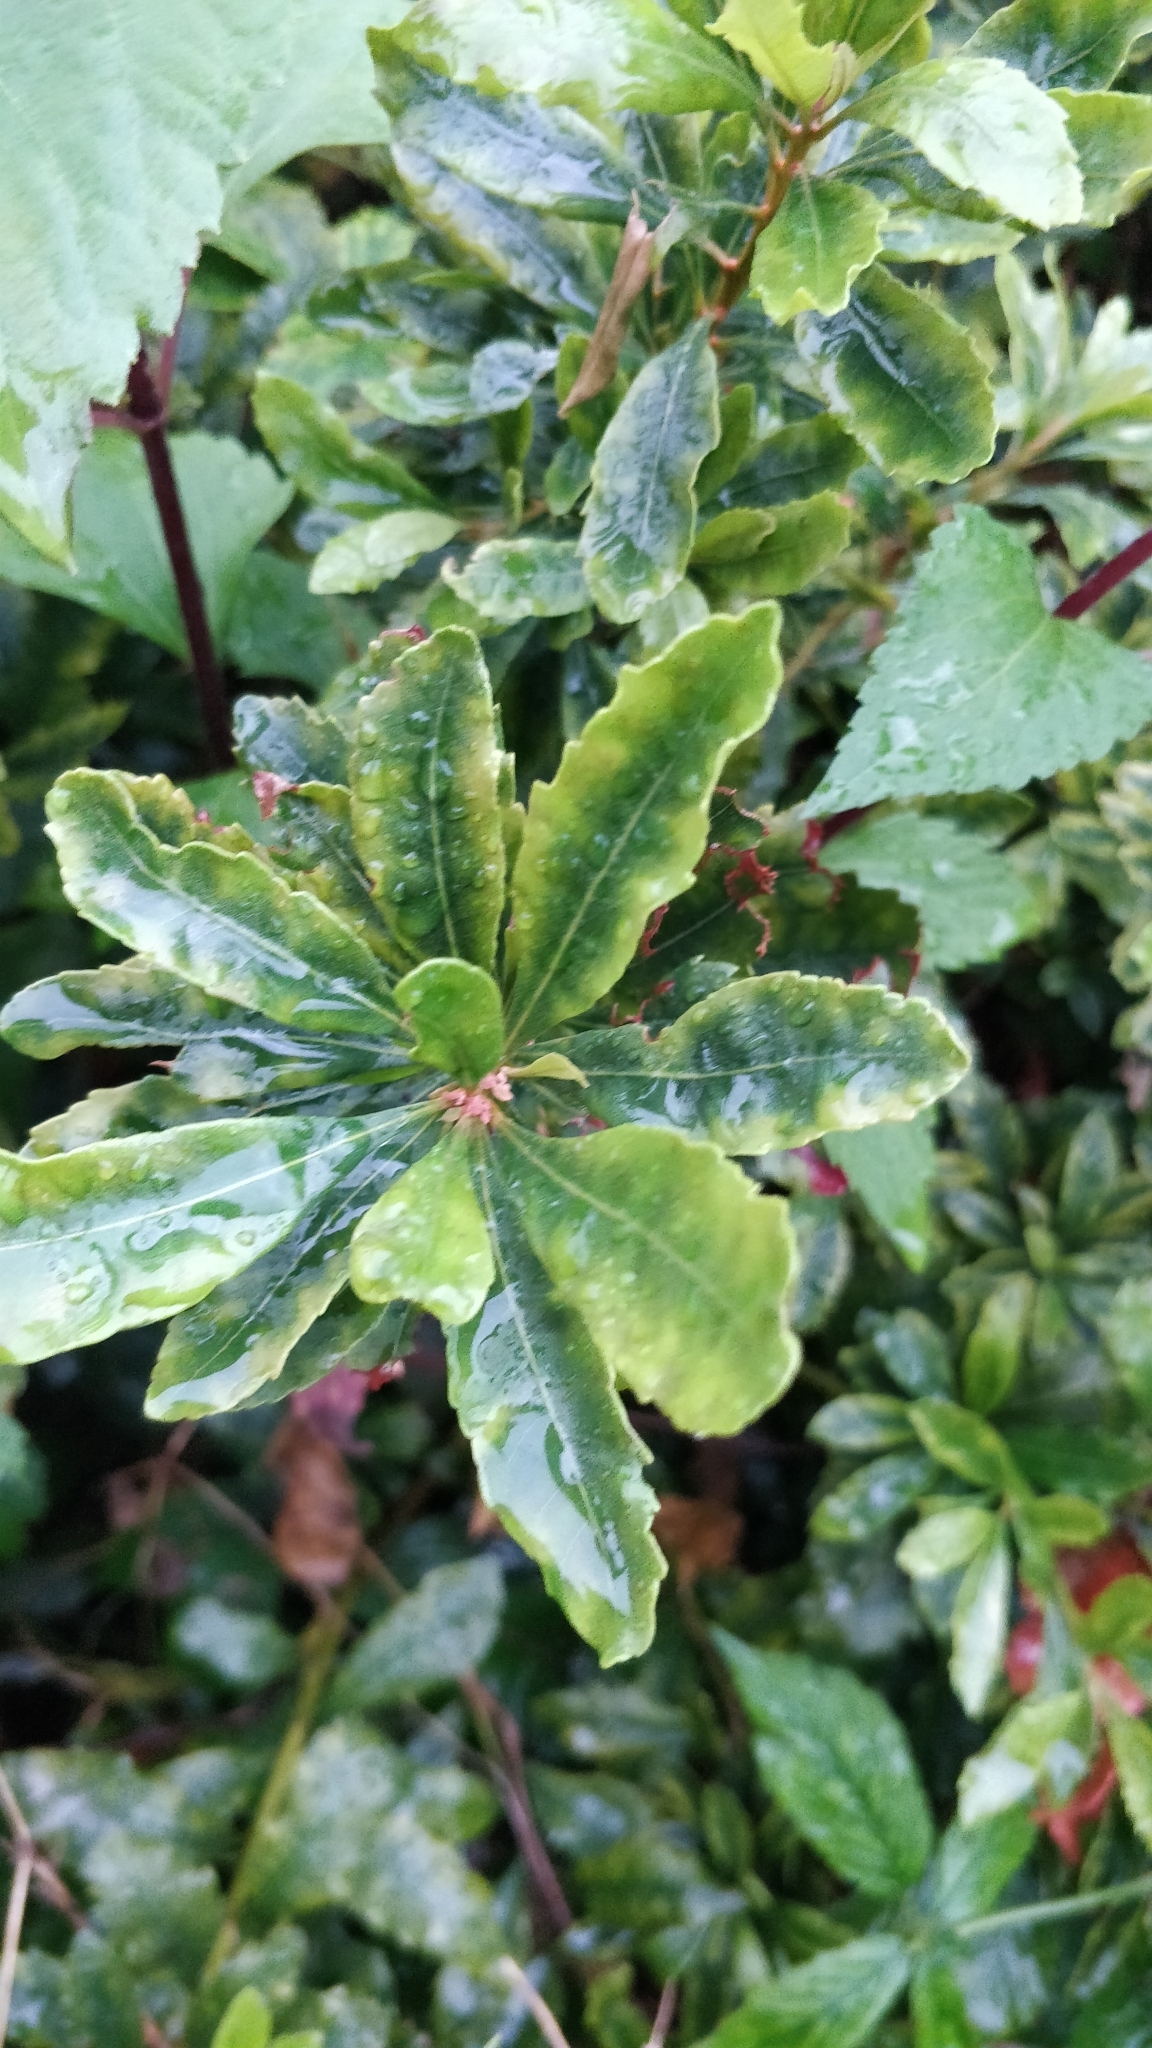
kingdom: Plantae
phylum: Tracheophyta
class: Magnoliopsida
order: Fagales
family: Myricaceae
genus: Morella
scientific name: Morella faya
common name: Firetree
